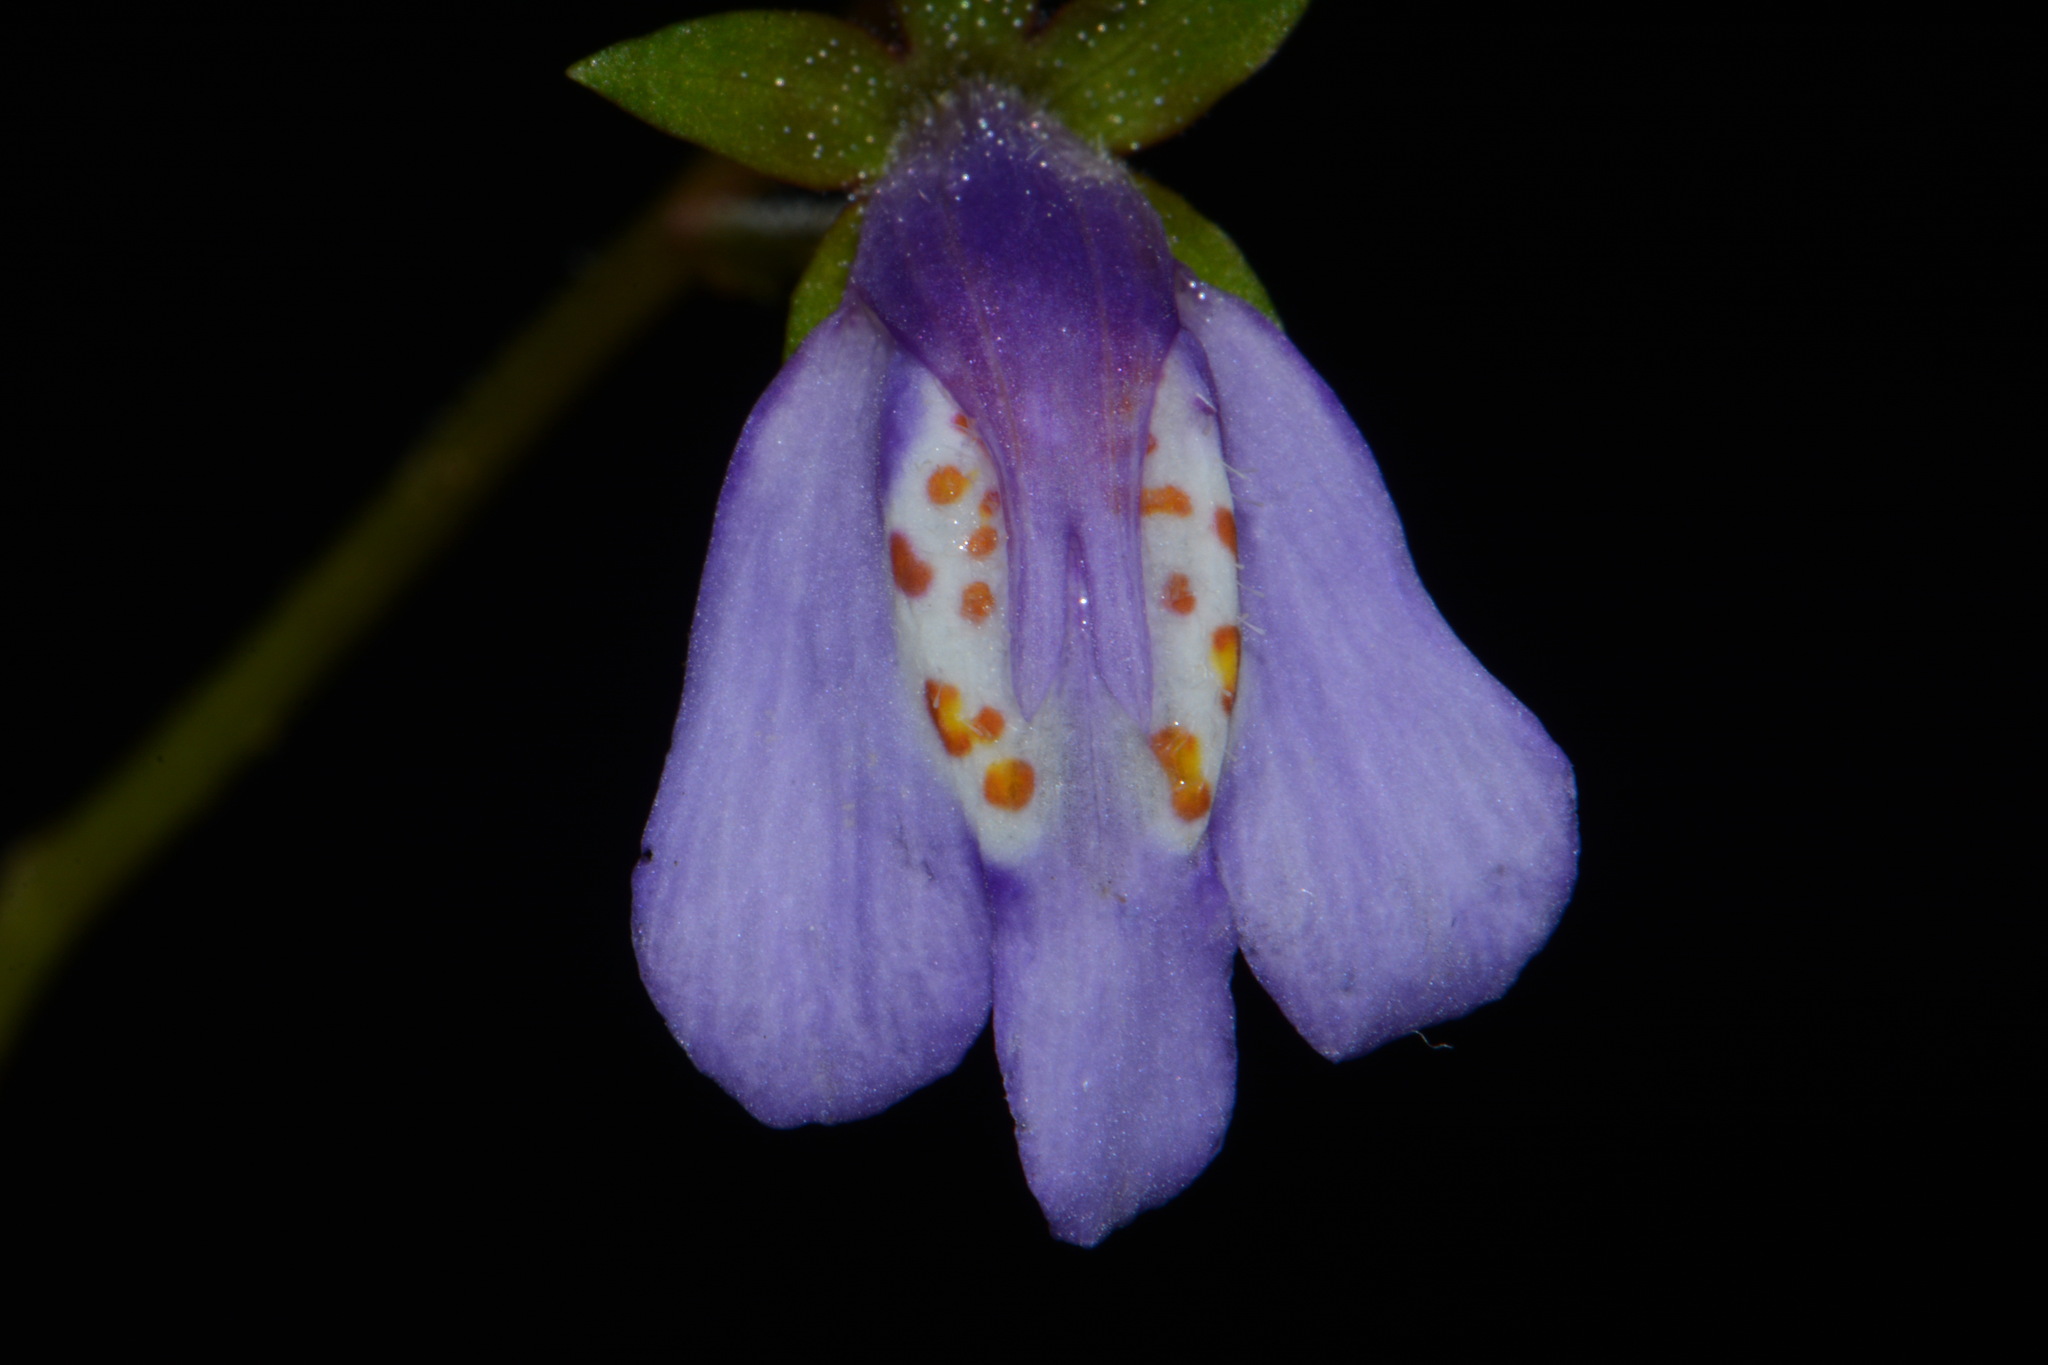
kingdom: Plantae
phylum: Tracheophyta
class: Magnoliopsida
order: Lamiales
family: Mazaceae
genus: Mazus
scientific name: Mazus miquelii
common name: Miquel's mazus
